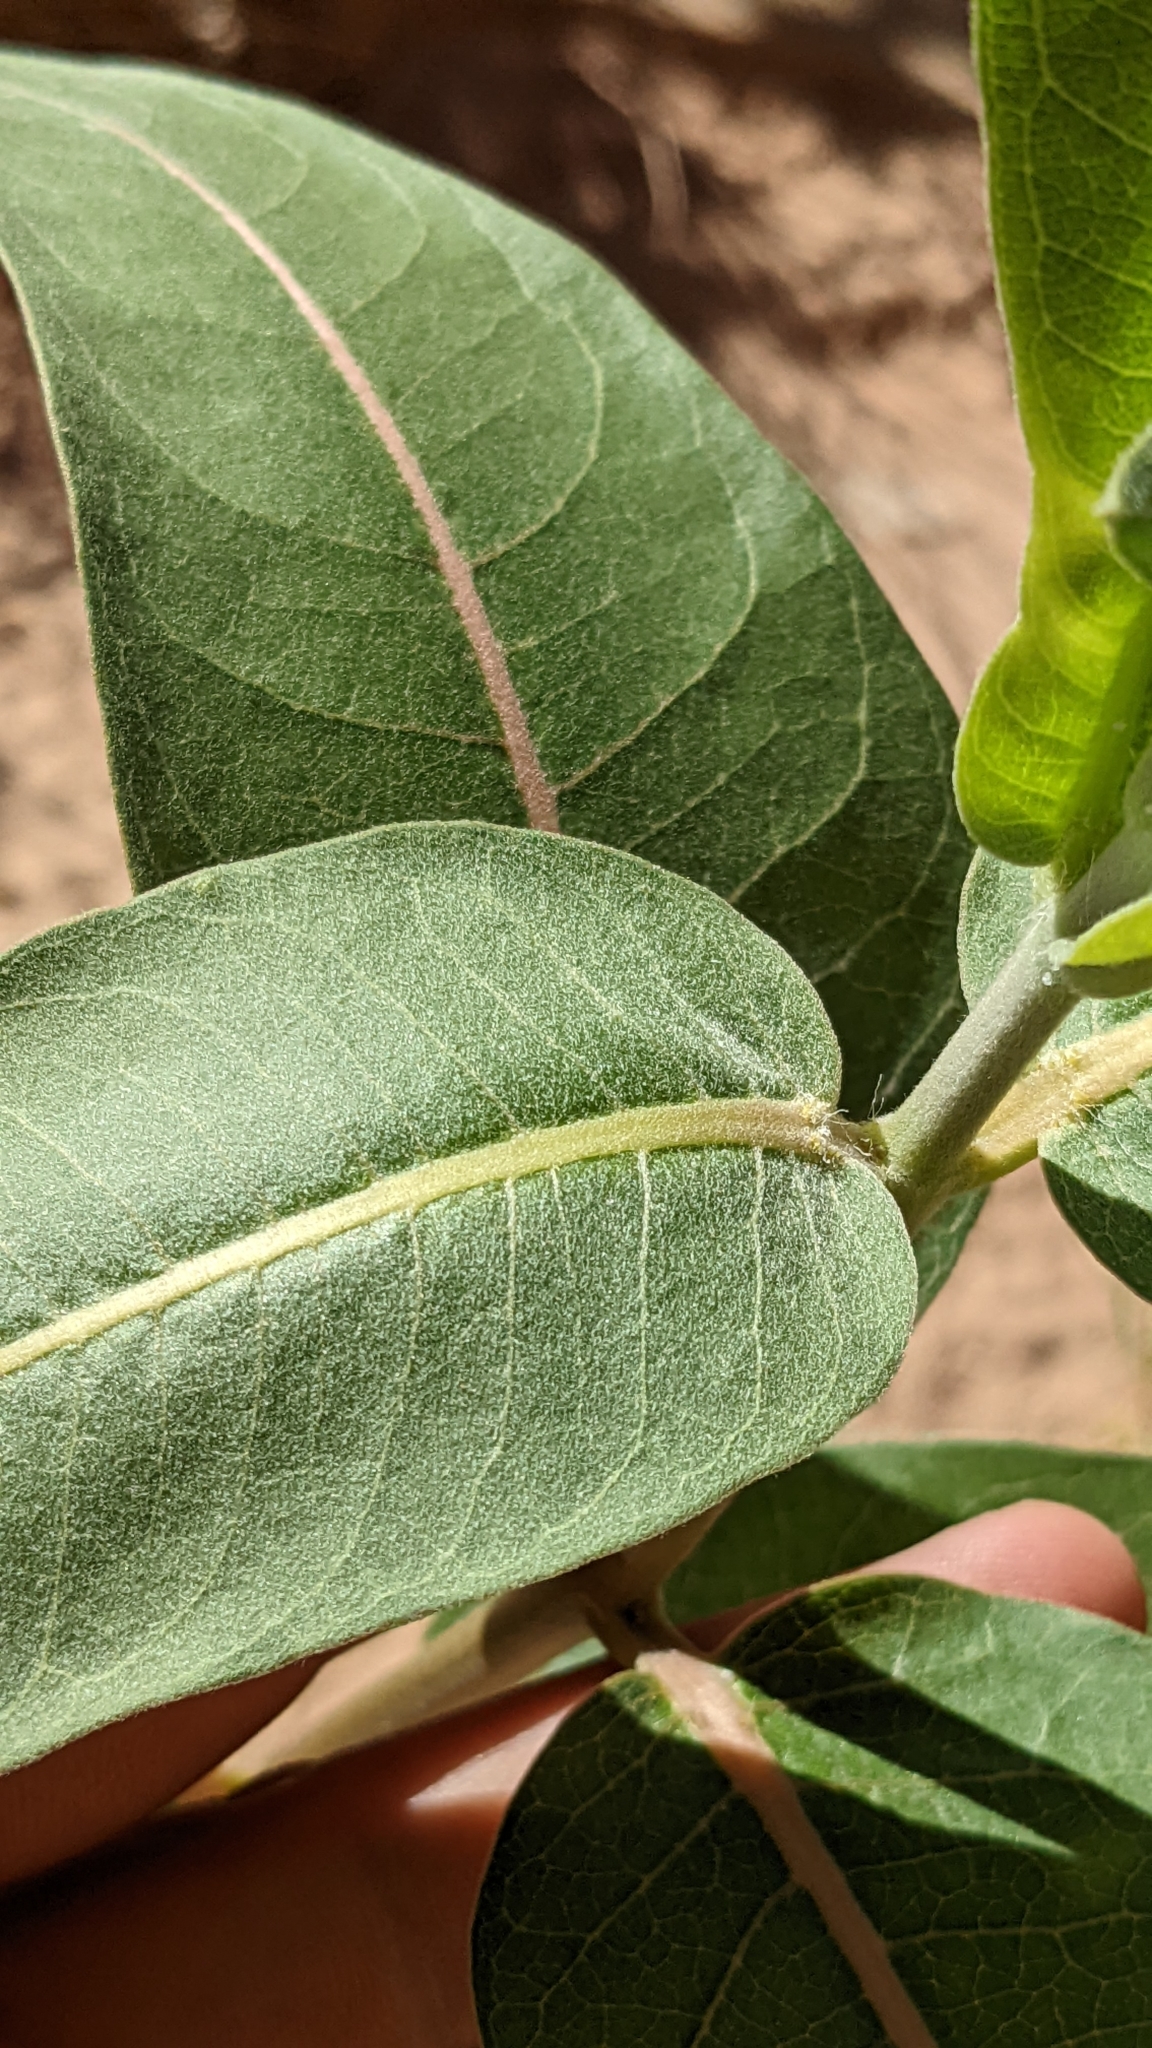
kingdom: Plantae
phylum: Tracheophyta
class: Magnoliopsida
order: Gentianales
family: Apocynaceae
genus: Asclepias
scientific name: Asclepias speciosa
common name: Showy milkweed
